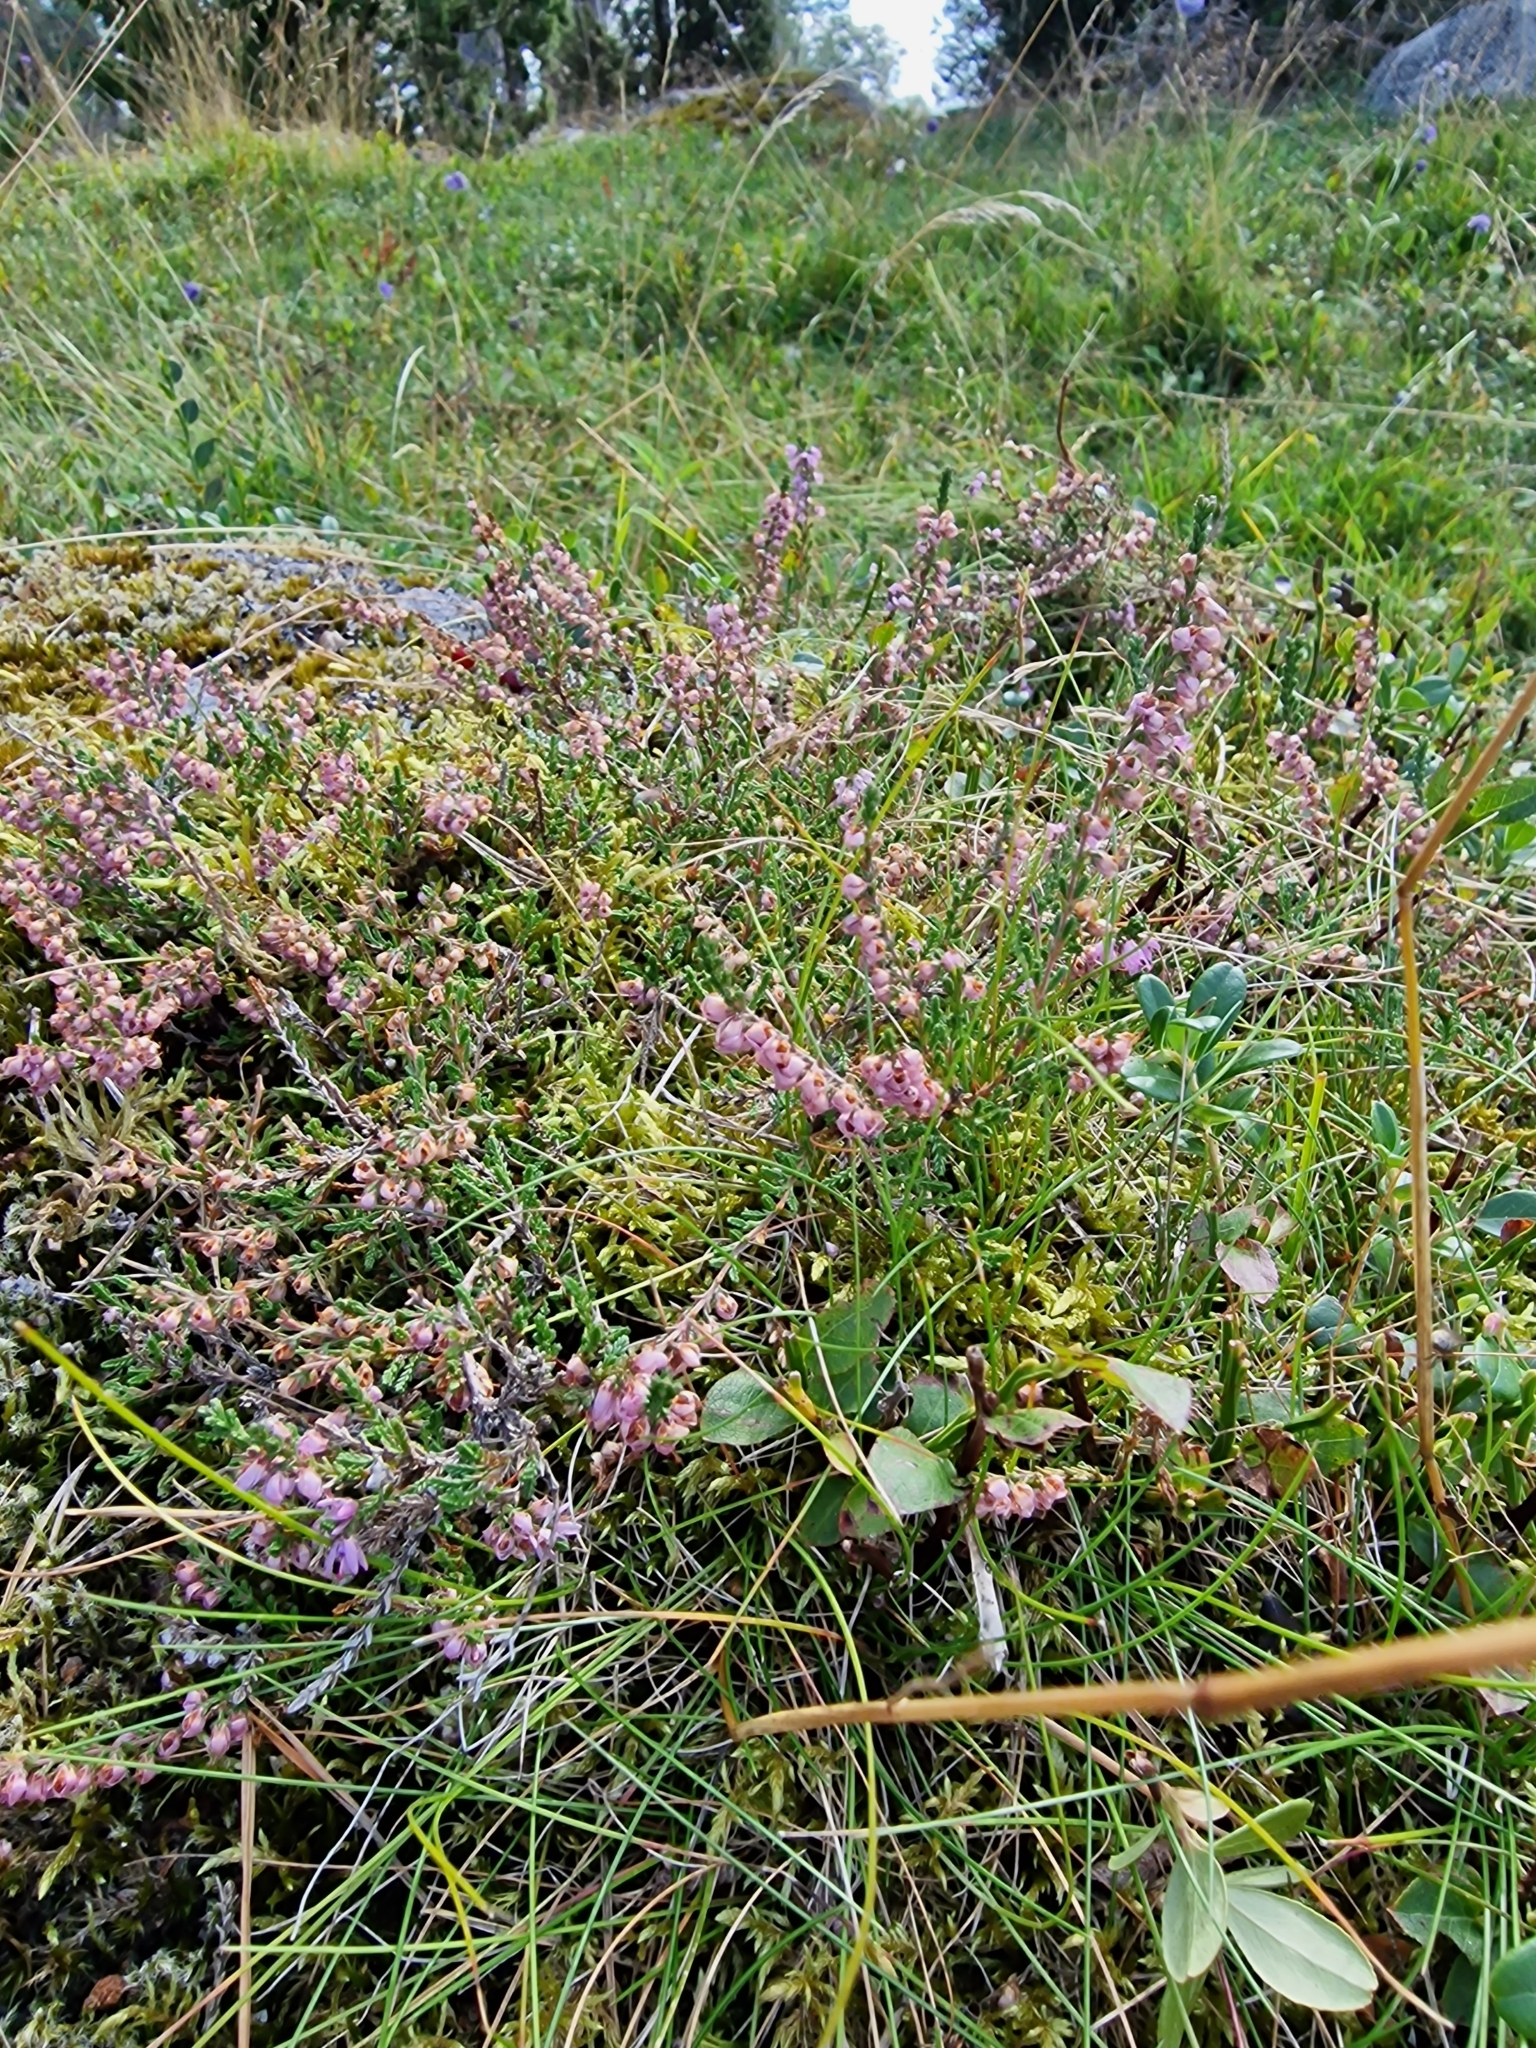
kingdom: Plantae
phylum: Tracheophyta
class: Magnoliopsida
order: Ericales
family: Ericaceae
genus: Calluna
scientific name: Calluna vulgaris
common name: Heather
